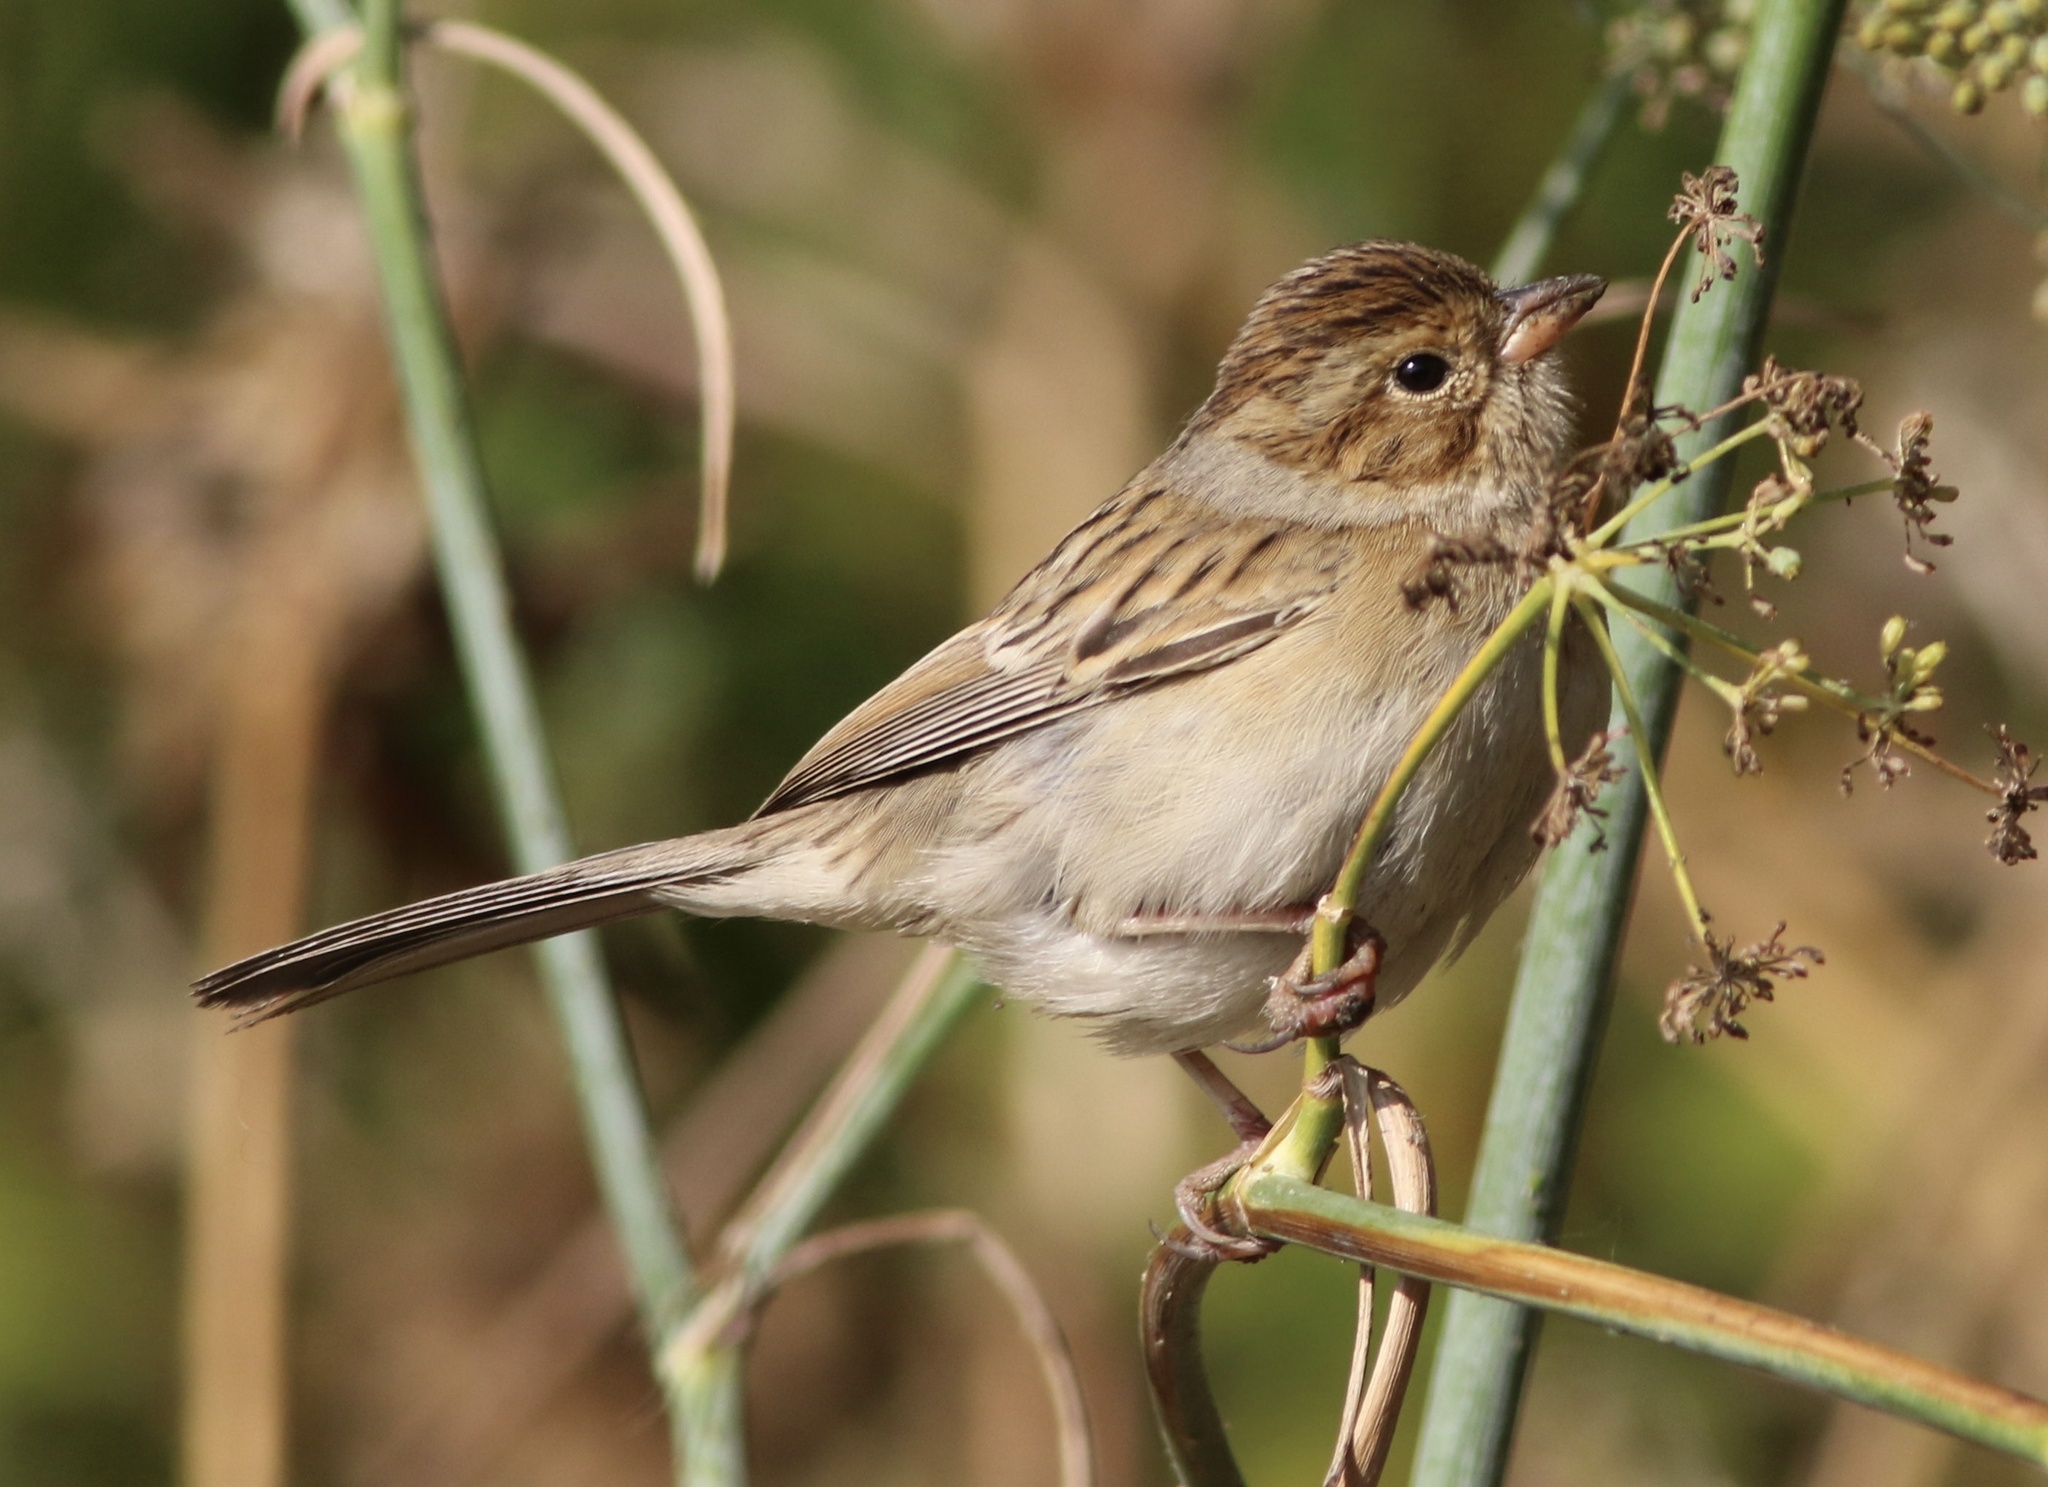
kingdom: Animalia
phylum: Chordata
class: Aves
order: Passeriformes
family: Passerellidae
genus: Spizella
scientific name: Spizella pallida
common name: Clay-colored sparrow
